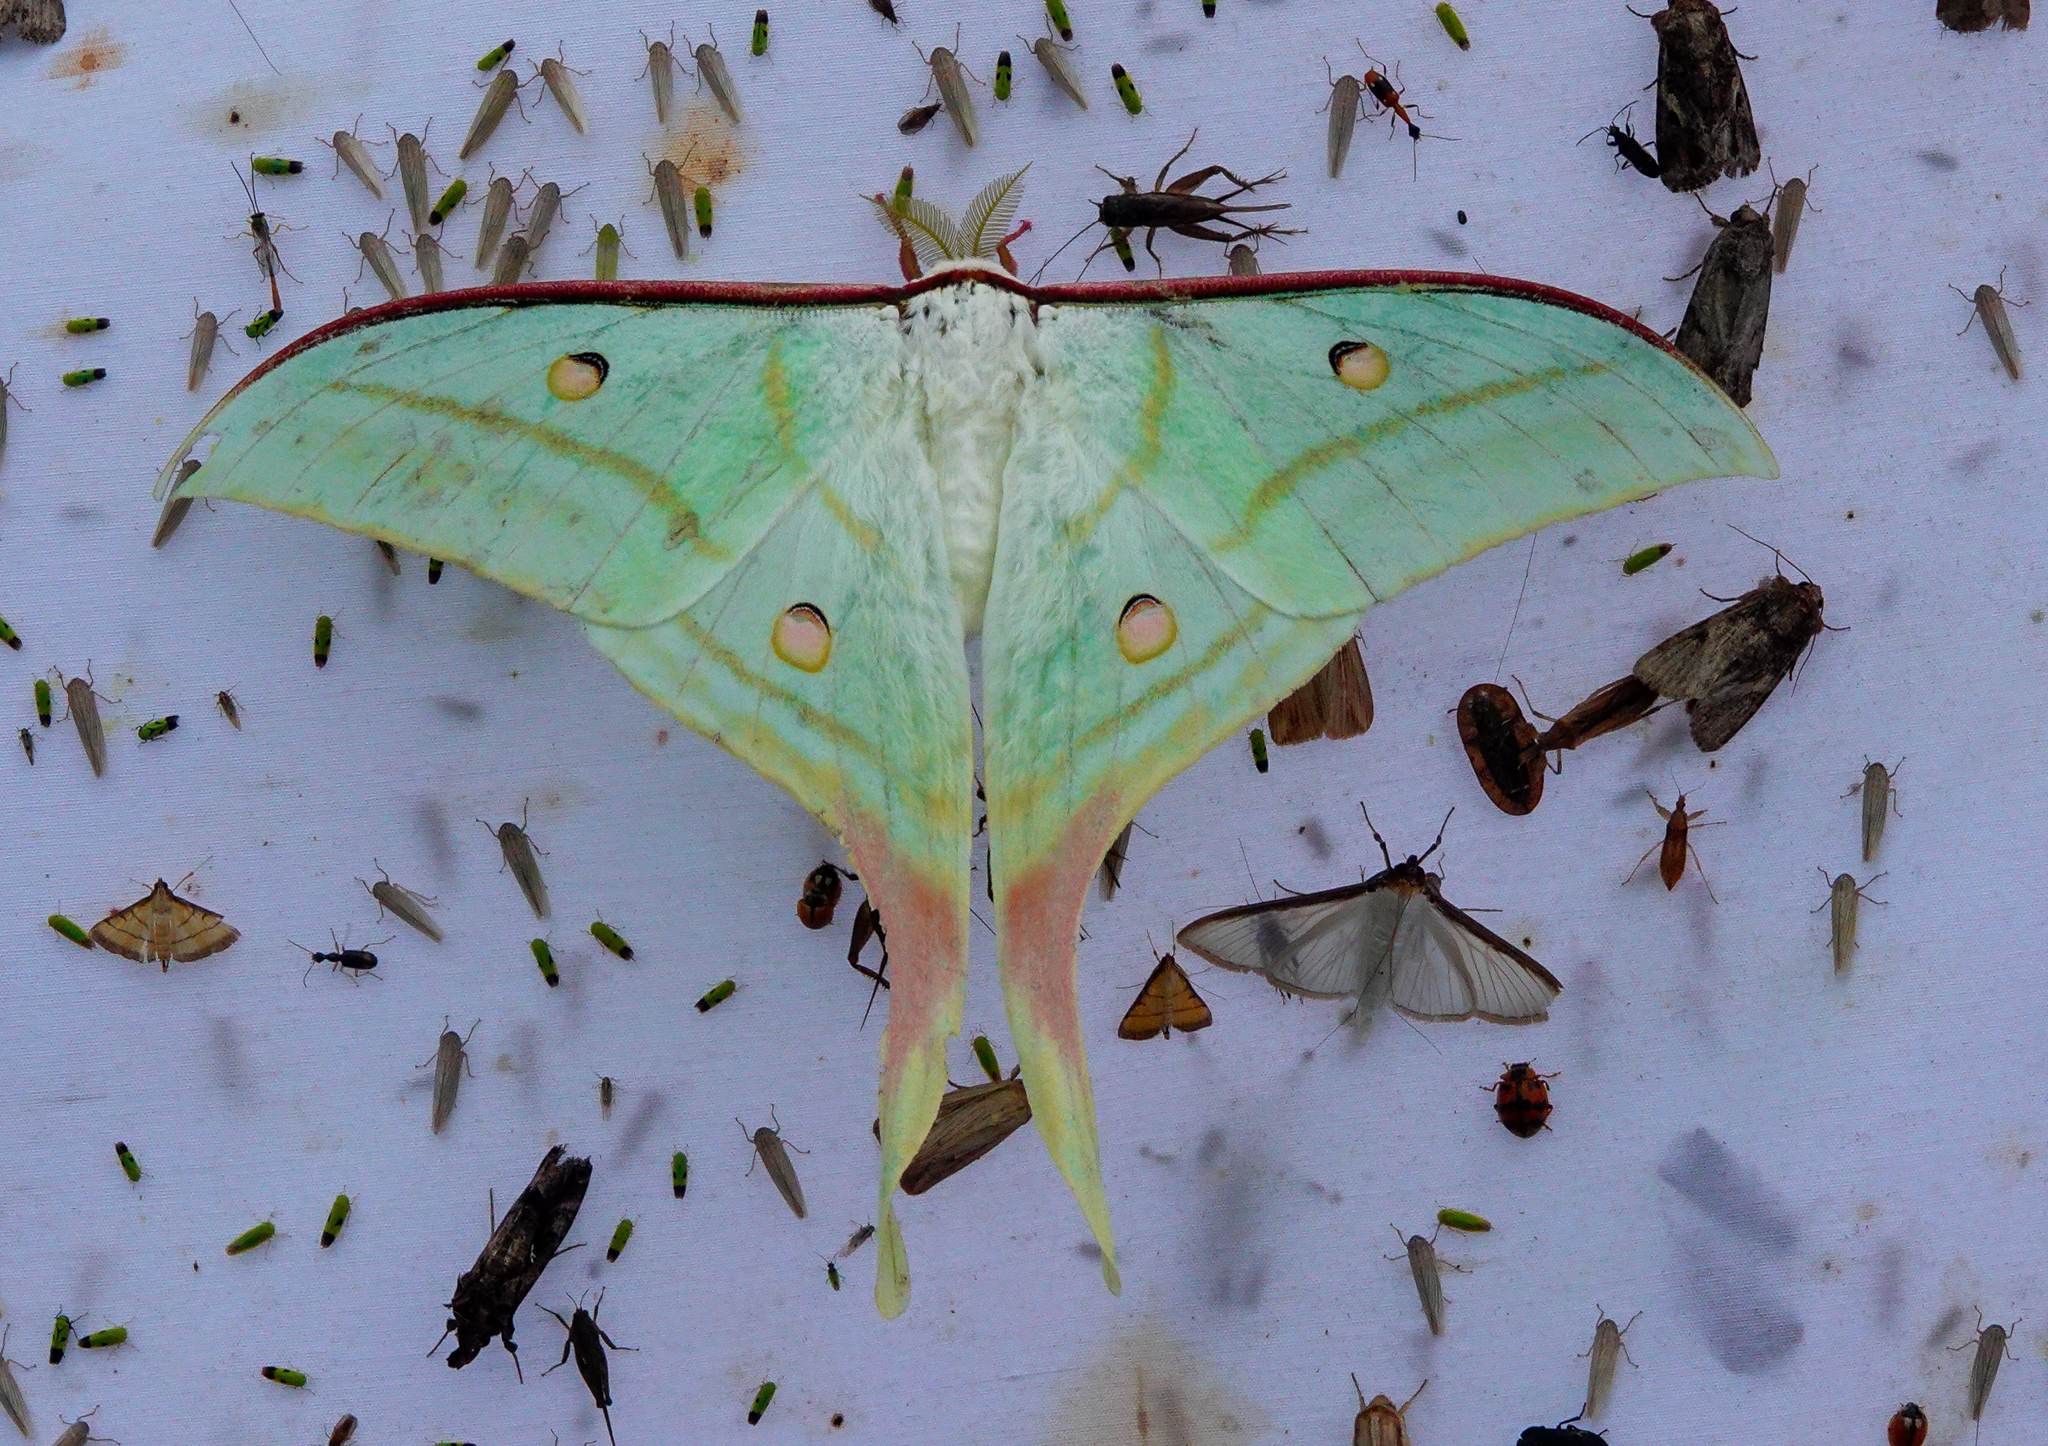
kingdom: Animalia
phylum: Arthropoda
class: Insecta
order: Lepidoptera
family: Saturniidae
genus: Actias
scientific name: Actias selene
